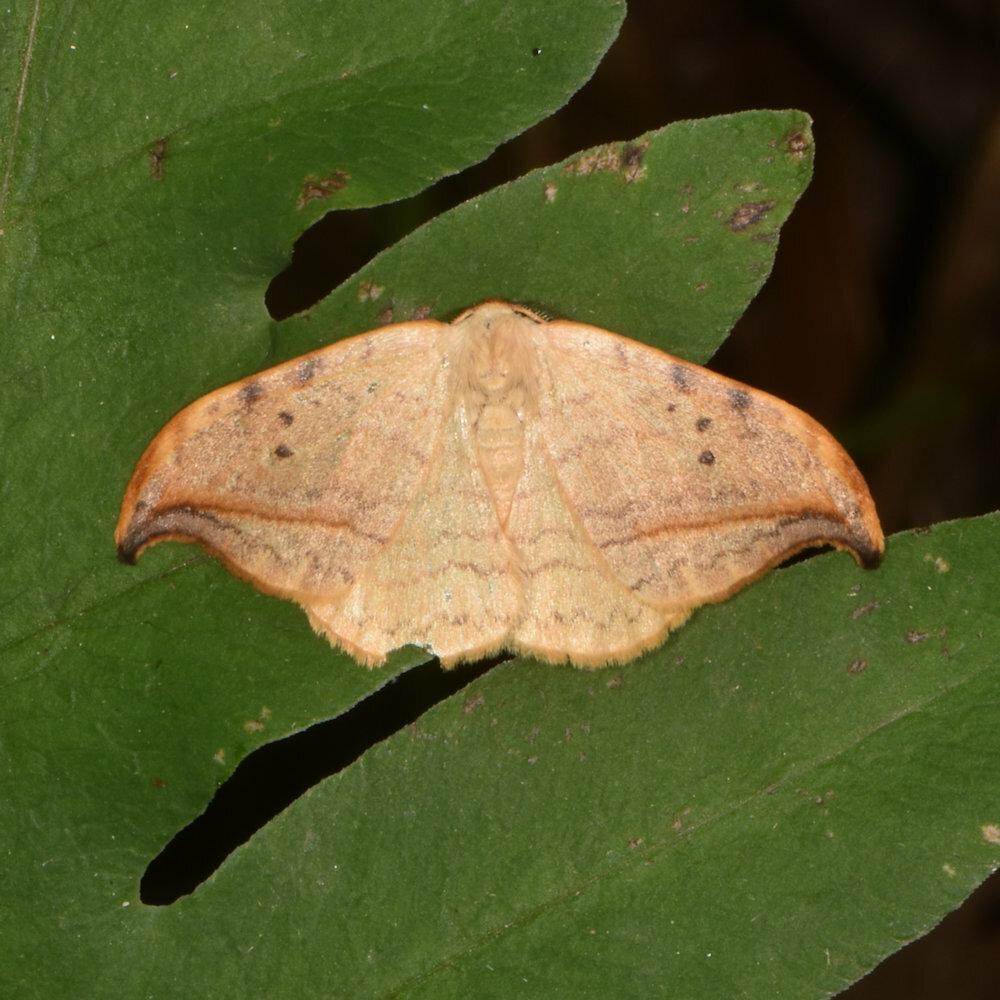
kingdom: Animalia
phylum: Arthropoda
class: Insecta
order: Lepidoptera
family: Drepanidae
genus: Drepana
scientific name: Drepana arcuata
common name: Arched hooktip moth
